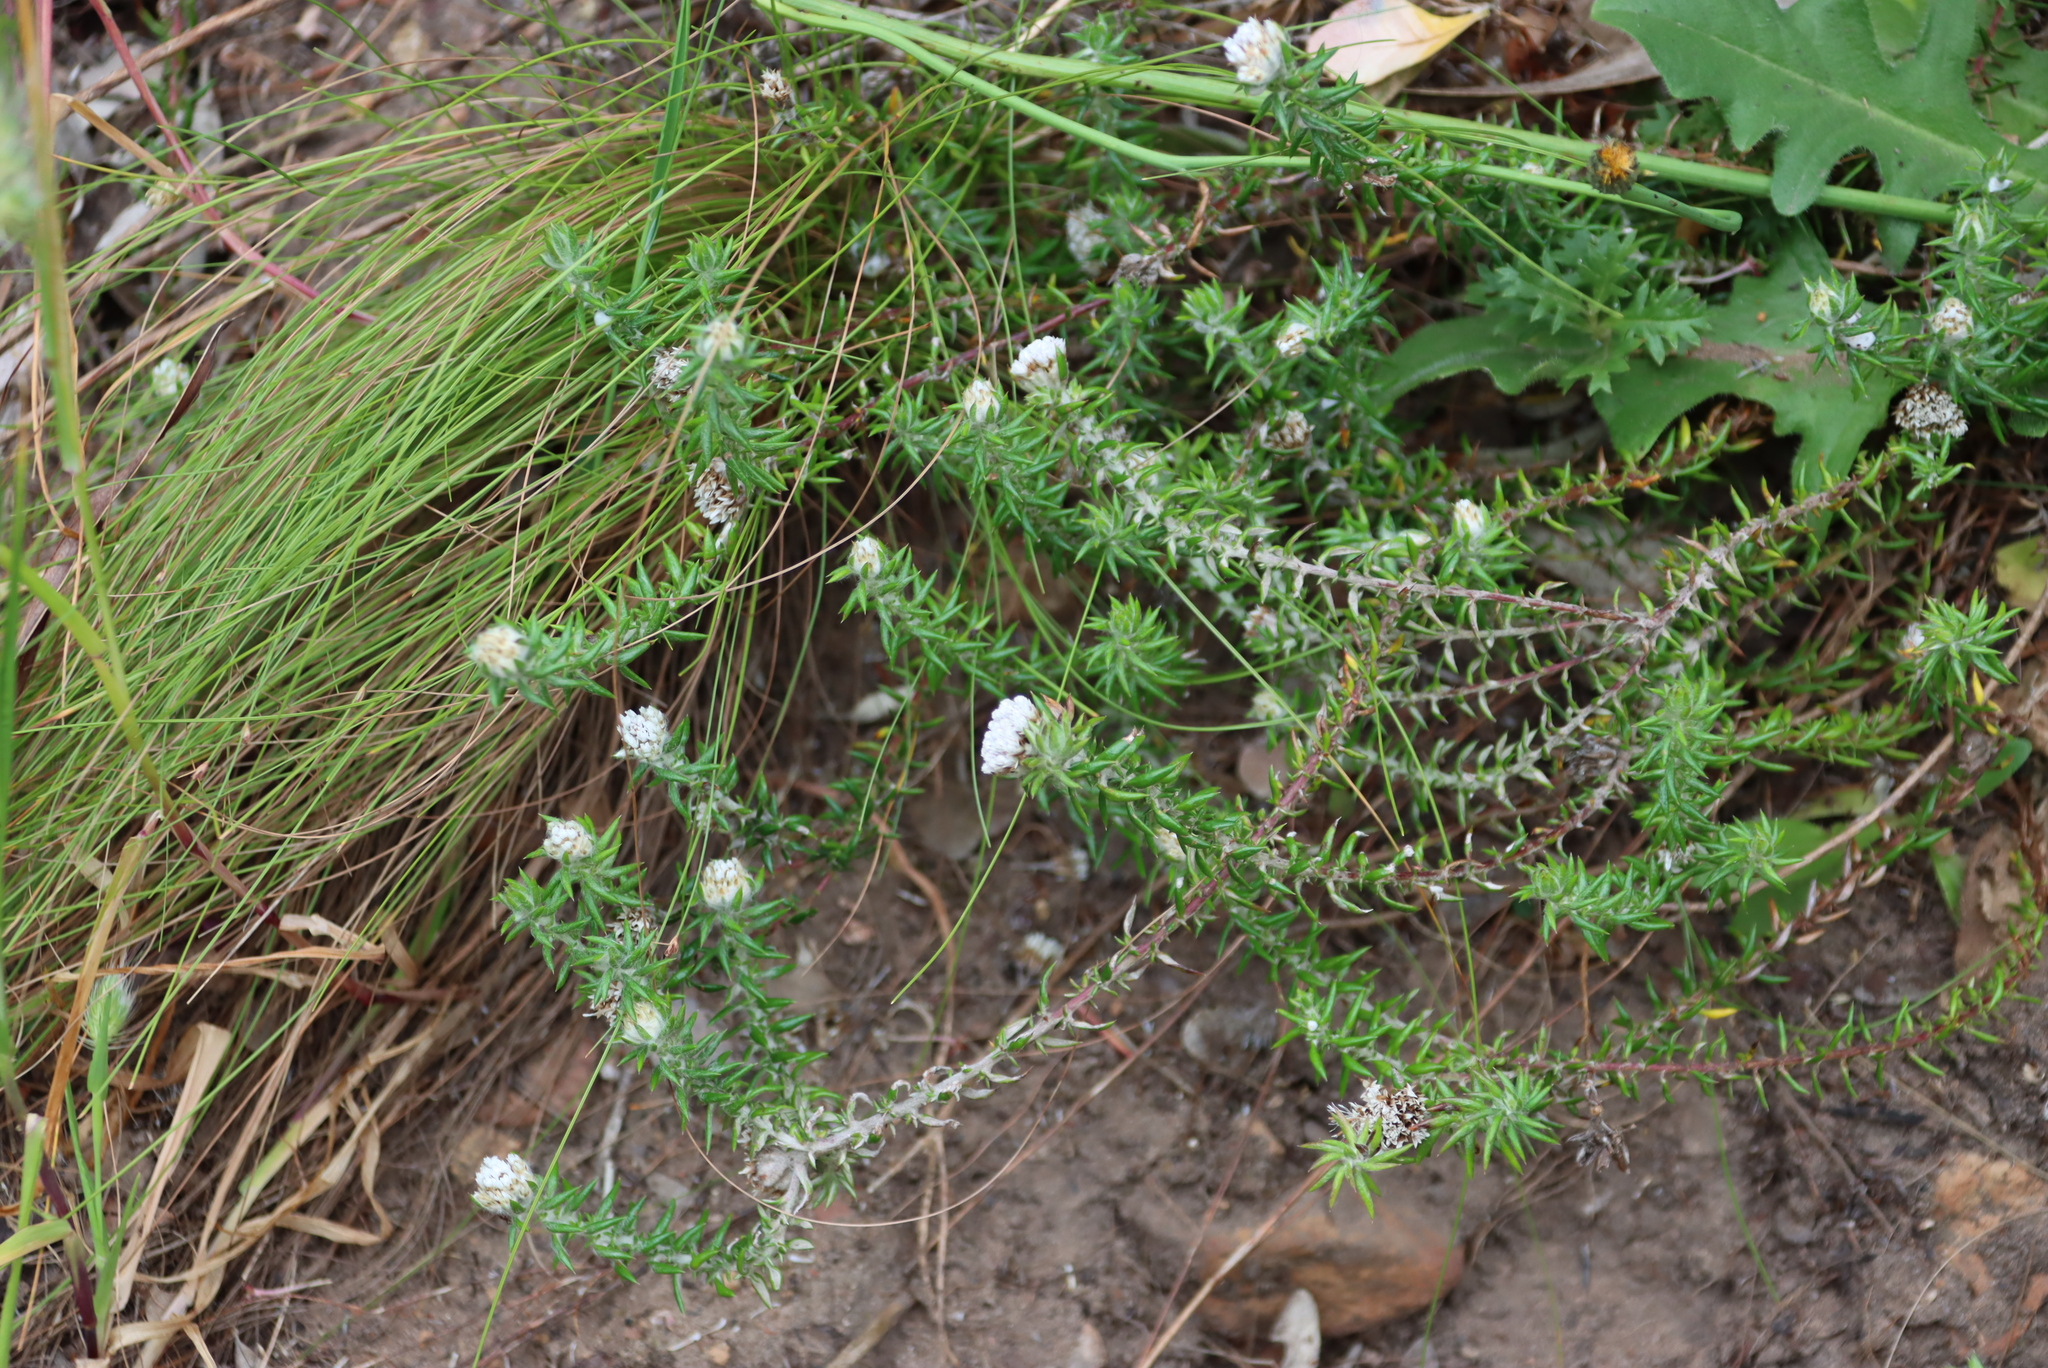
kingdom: Plantae
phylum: Tracheophyta
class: Magnoliopsida
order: Asterales
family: Asteraceae
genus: Metalasia
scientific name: Metalasia divergens
